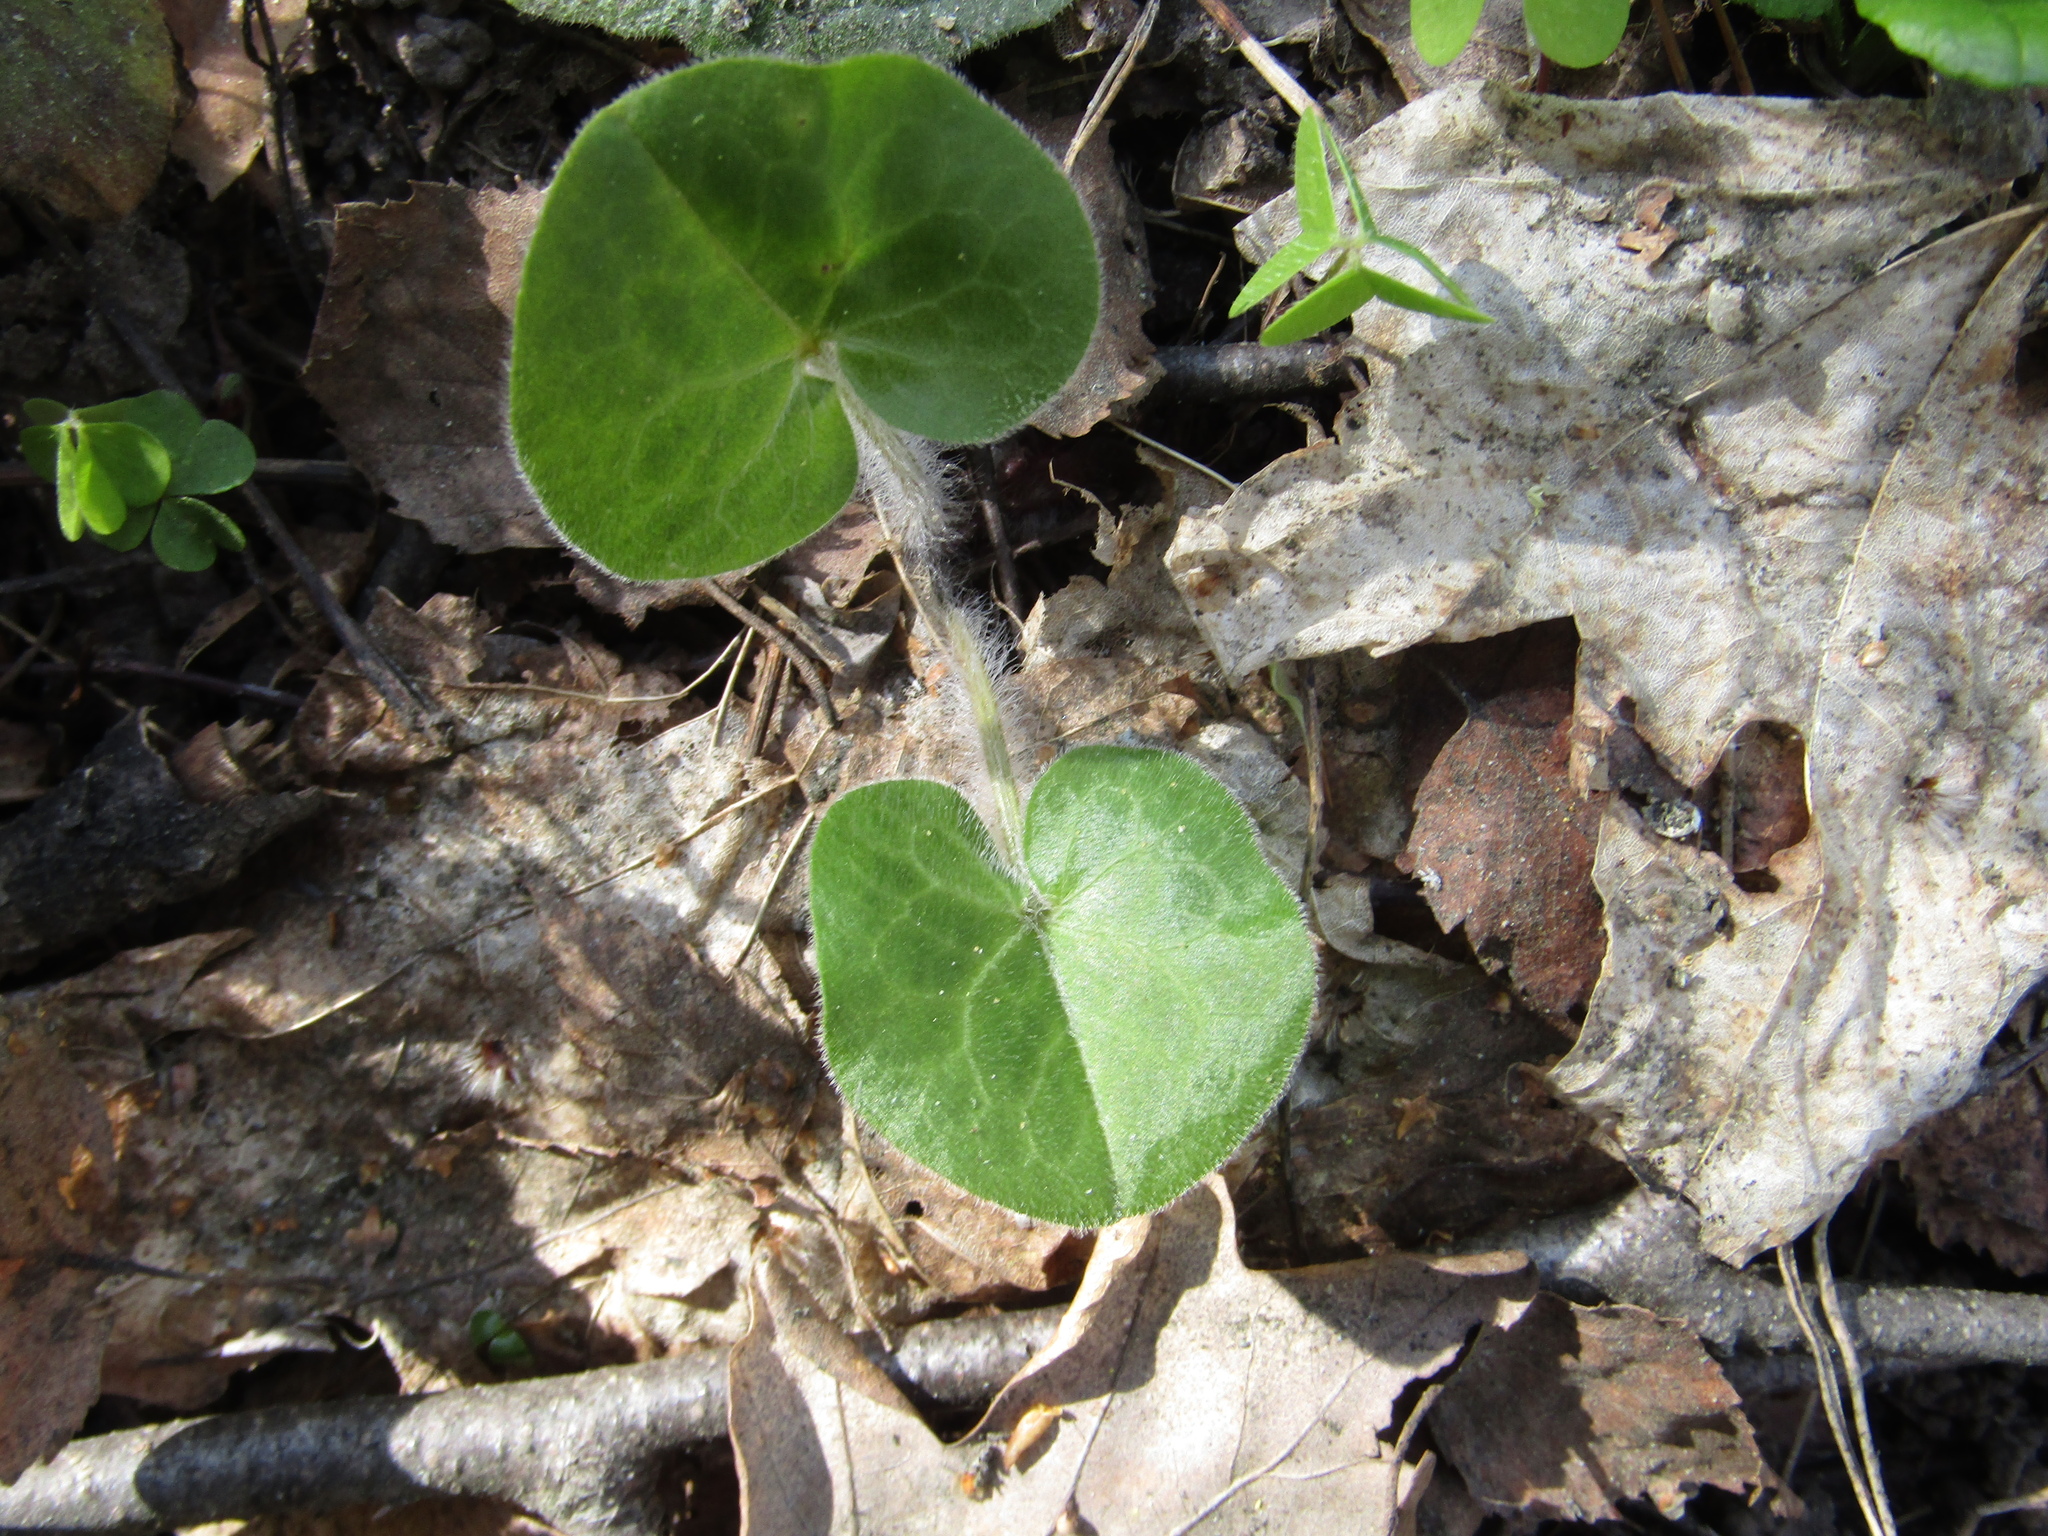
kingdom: Plantae
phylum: Tracheophyta
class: Magnoliopsida
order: Piperales
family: Aristolochiaceae
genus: Asarum
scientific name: Asarum europaeum
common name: Asarabacca
